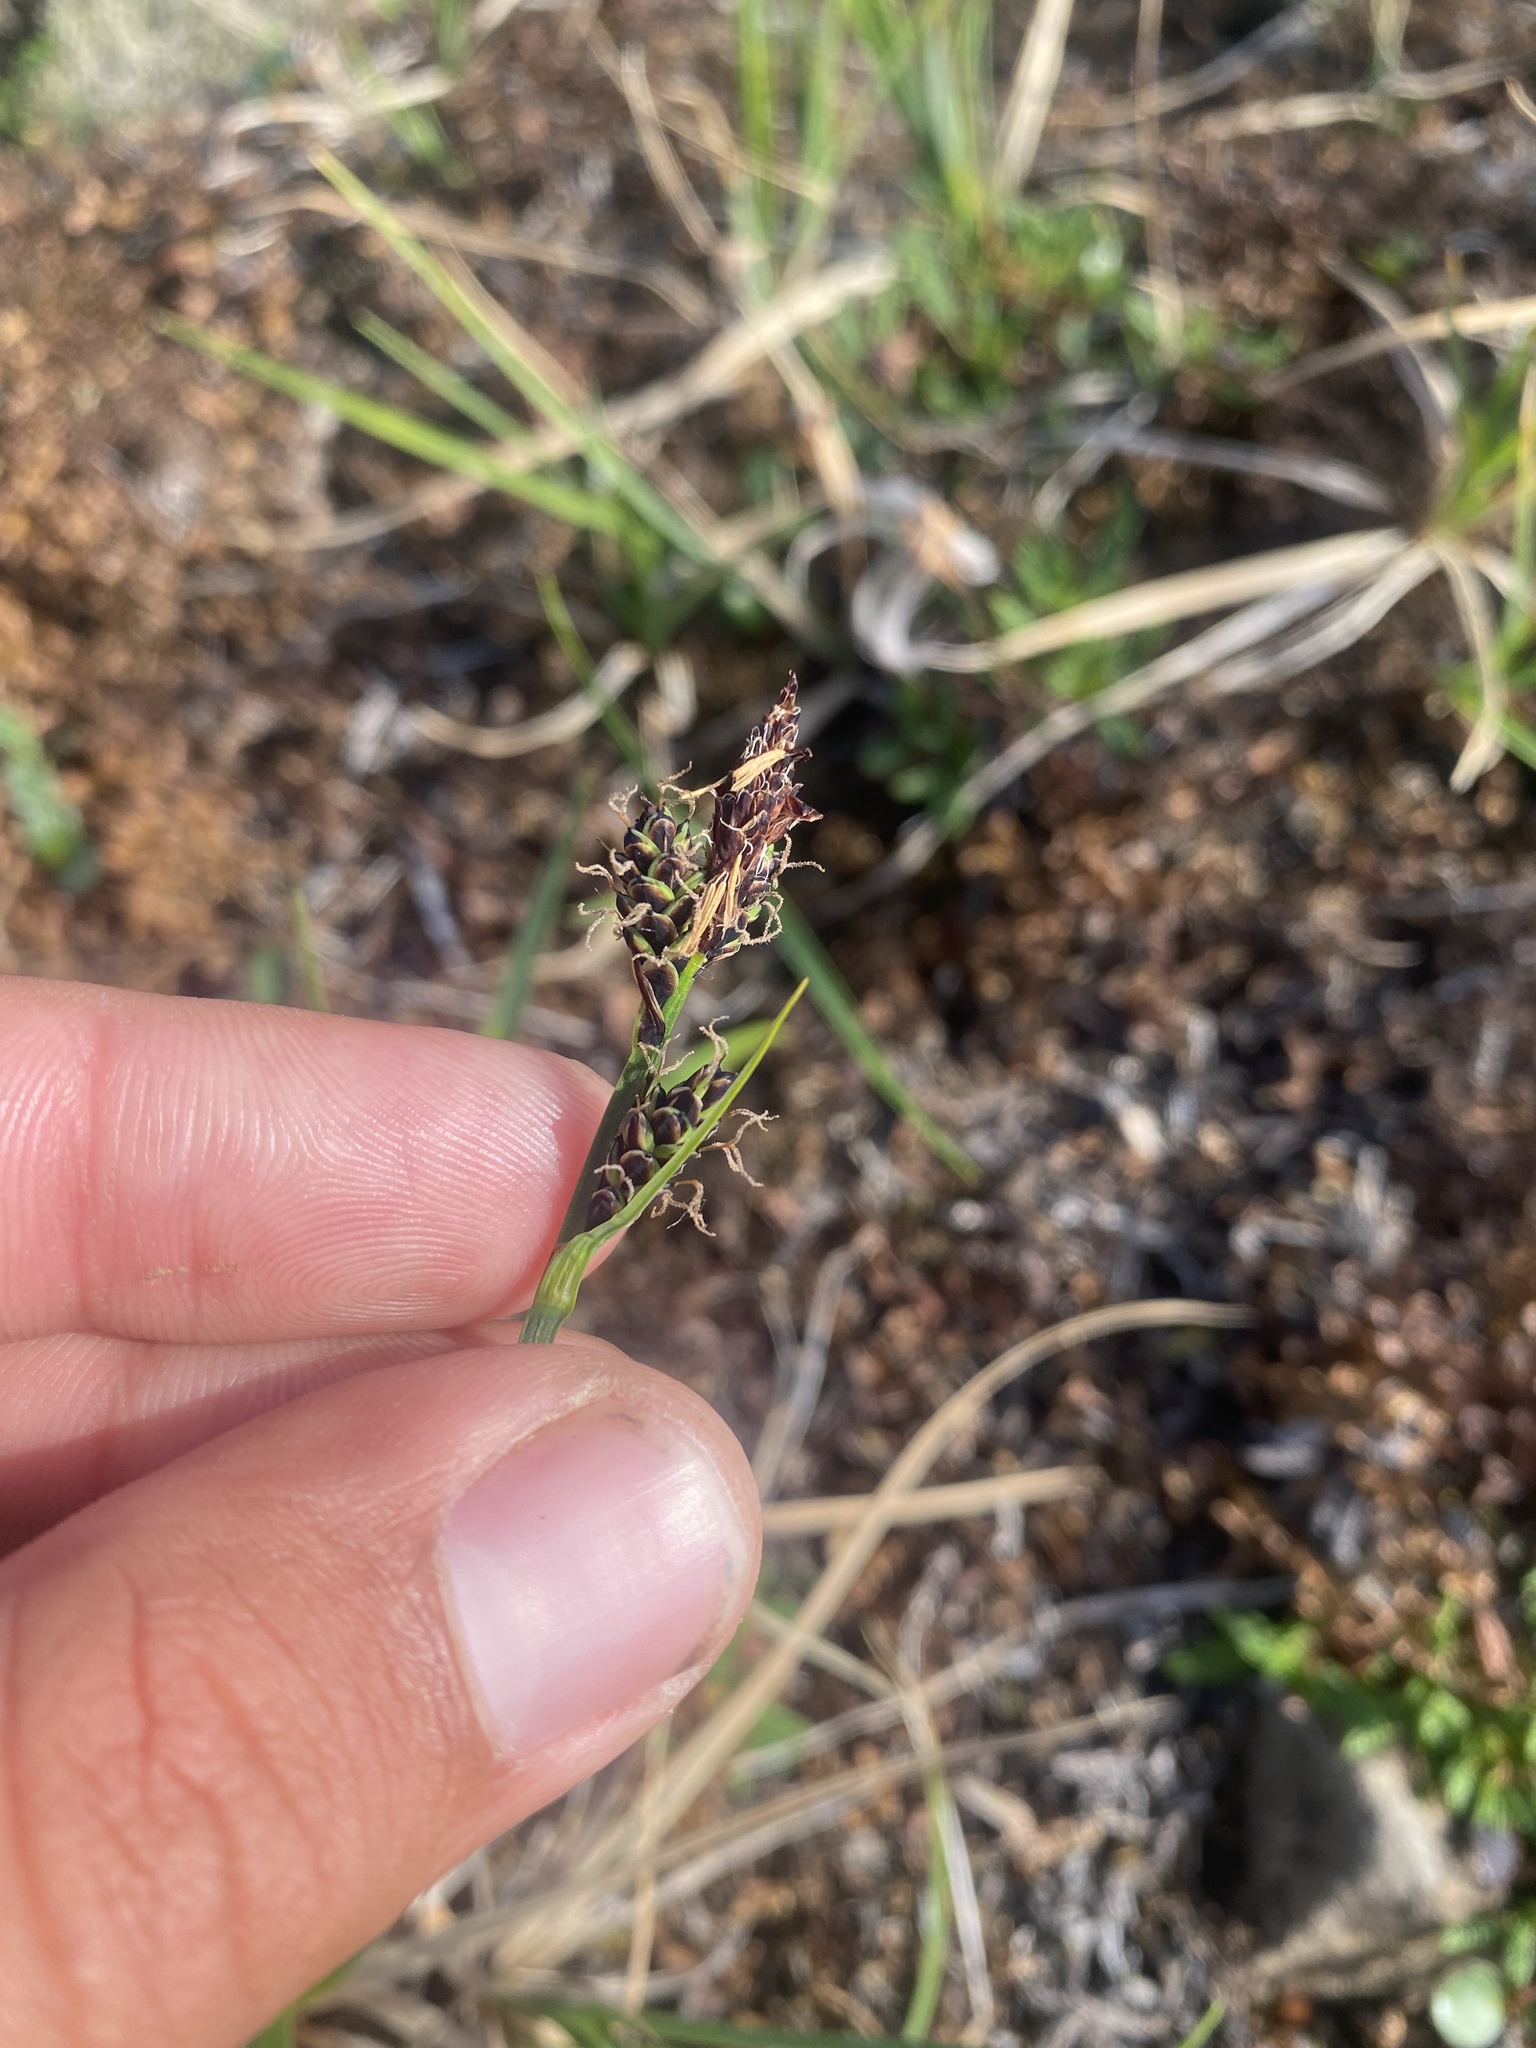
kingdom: Plantae
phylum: Tracheophyta
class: Liliopsida
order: Poales
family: Cyperaceae
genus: Carex
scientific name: Carex bigelowii
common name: Stiff sedge
